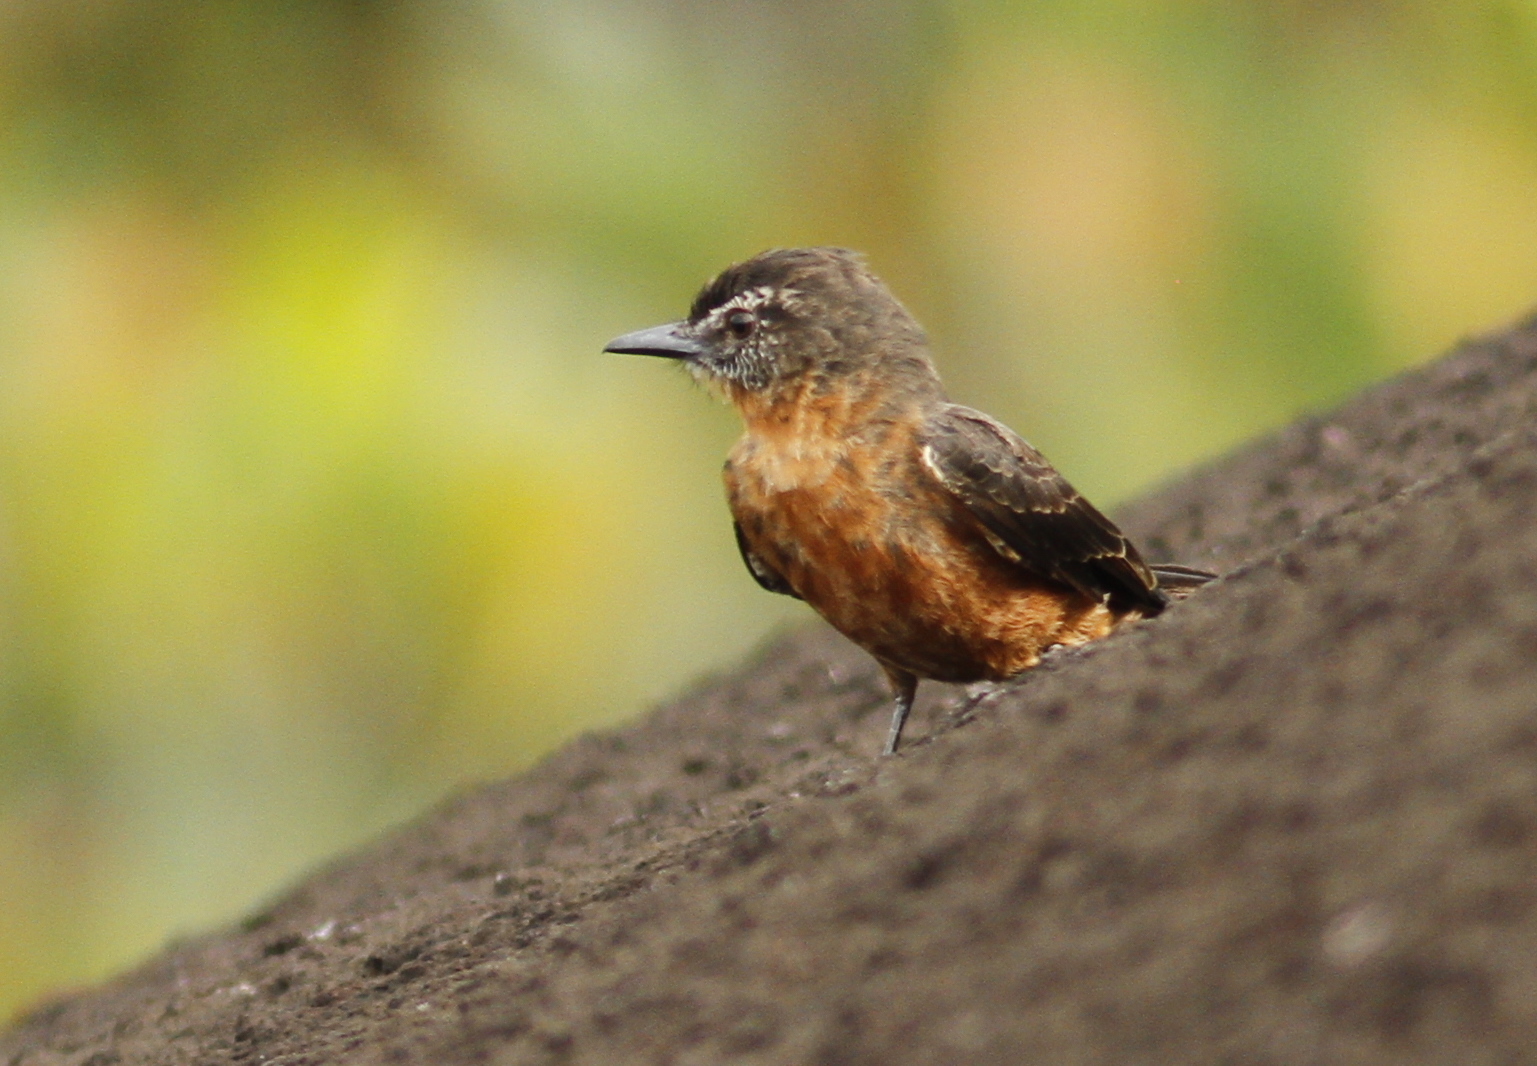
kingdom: Animalia
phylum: Chordata
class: Aves
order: Passeriformes
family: Tyrannidae
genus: Hirundinea
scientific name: Hirundinea ferruginea
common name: Cliff flycatcher
